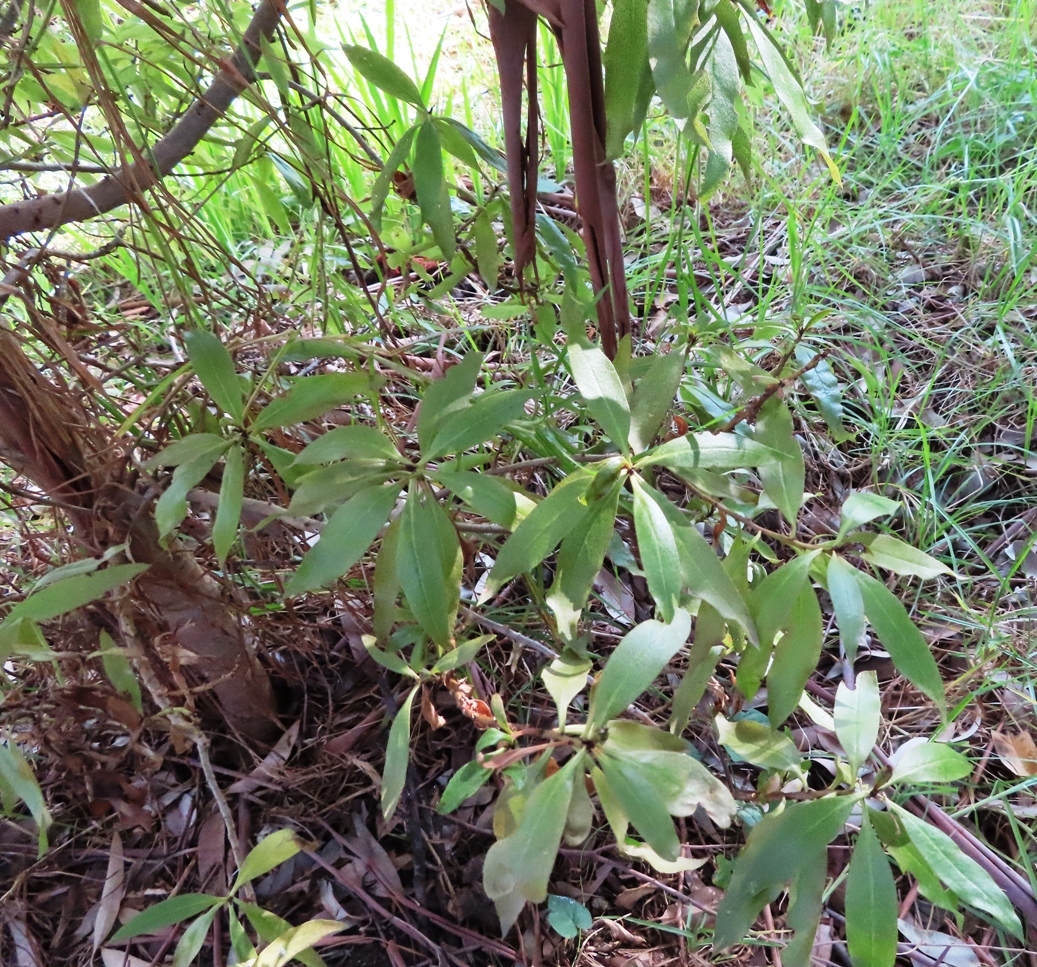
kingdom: Plantae
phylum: Tracheophyta
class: Magnoliopsida
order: Lamiales
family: Scrophulariaceae
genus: Myoporum
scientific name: Myoporum laetum
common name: Ngaio tree
